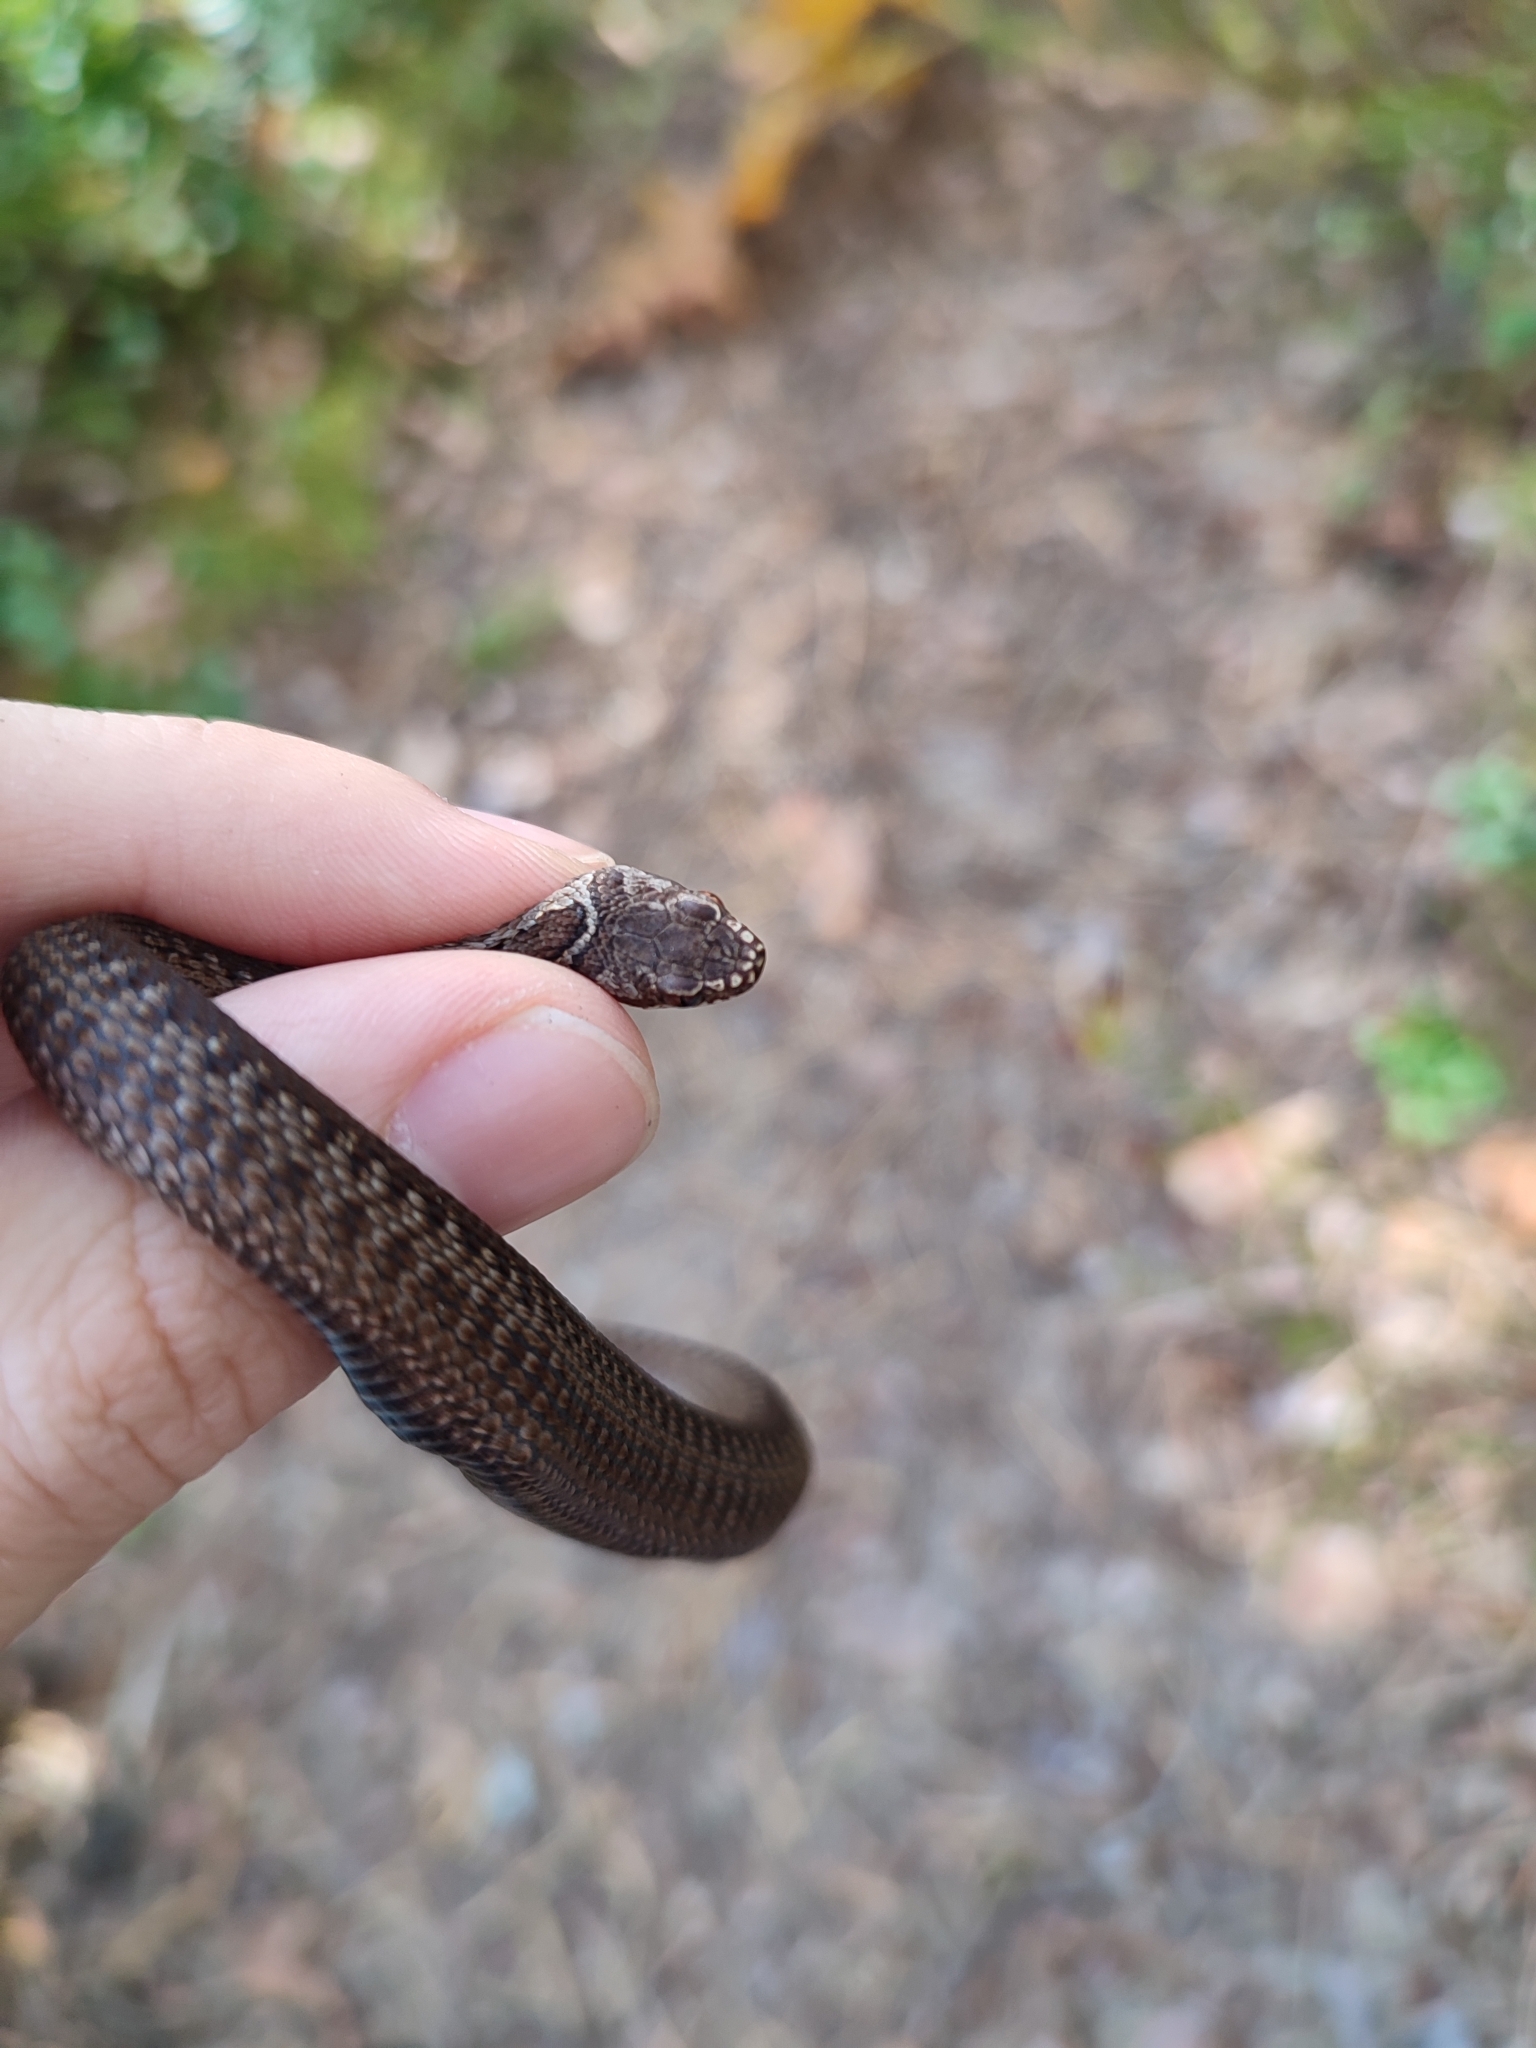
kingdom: Animalia
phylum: Chordata
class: Squamata
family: Viperidae
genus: Vipera
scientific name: Vipera berus
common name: Adder
